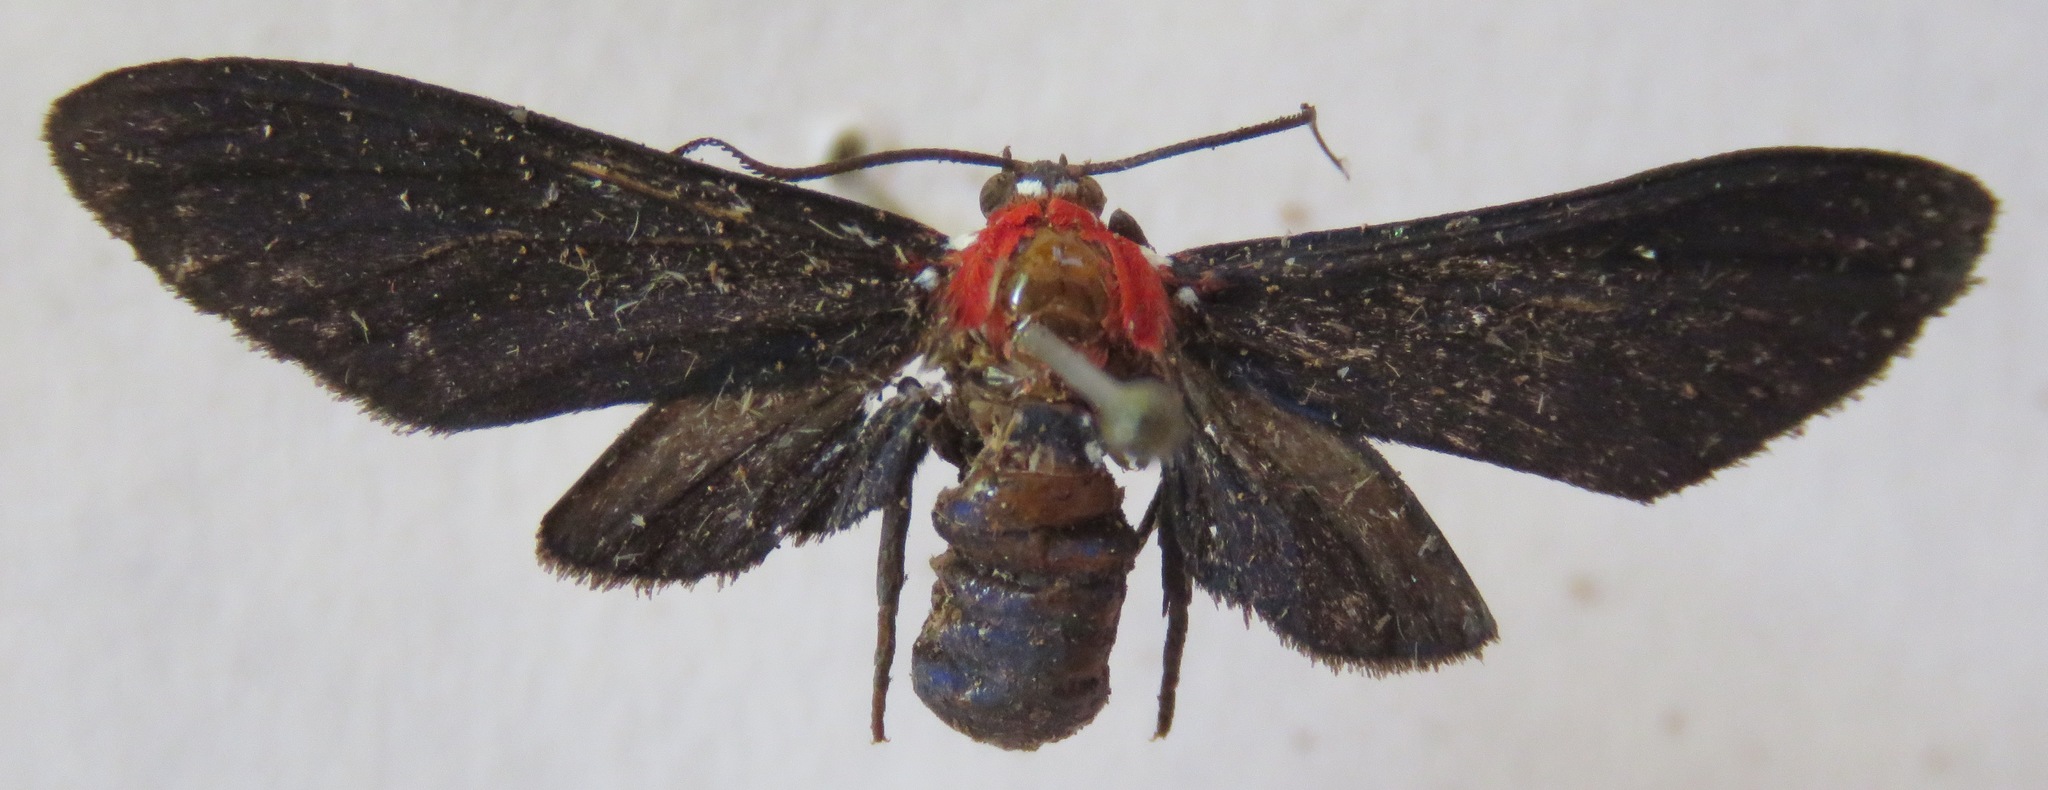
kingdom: Animalia
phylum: Arthropoda
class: Insecta
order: Lepidoptera
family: Erebidae
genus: Psoloptera
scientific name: Psoloptera thoracica
